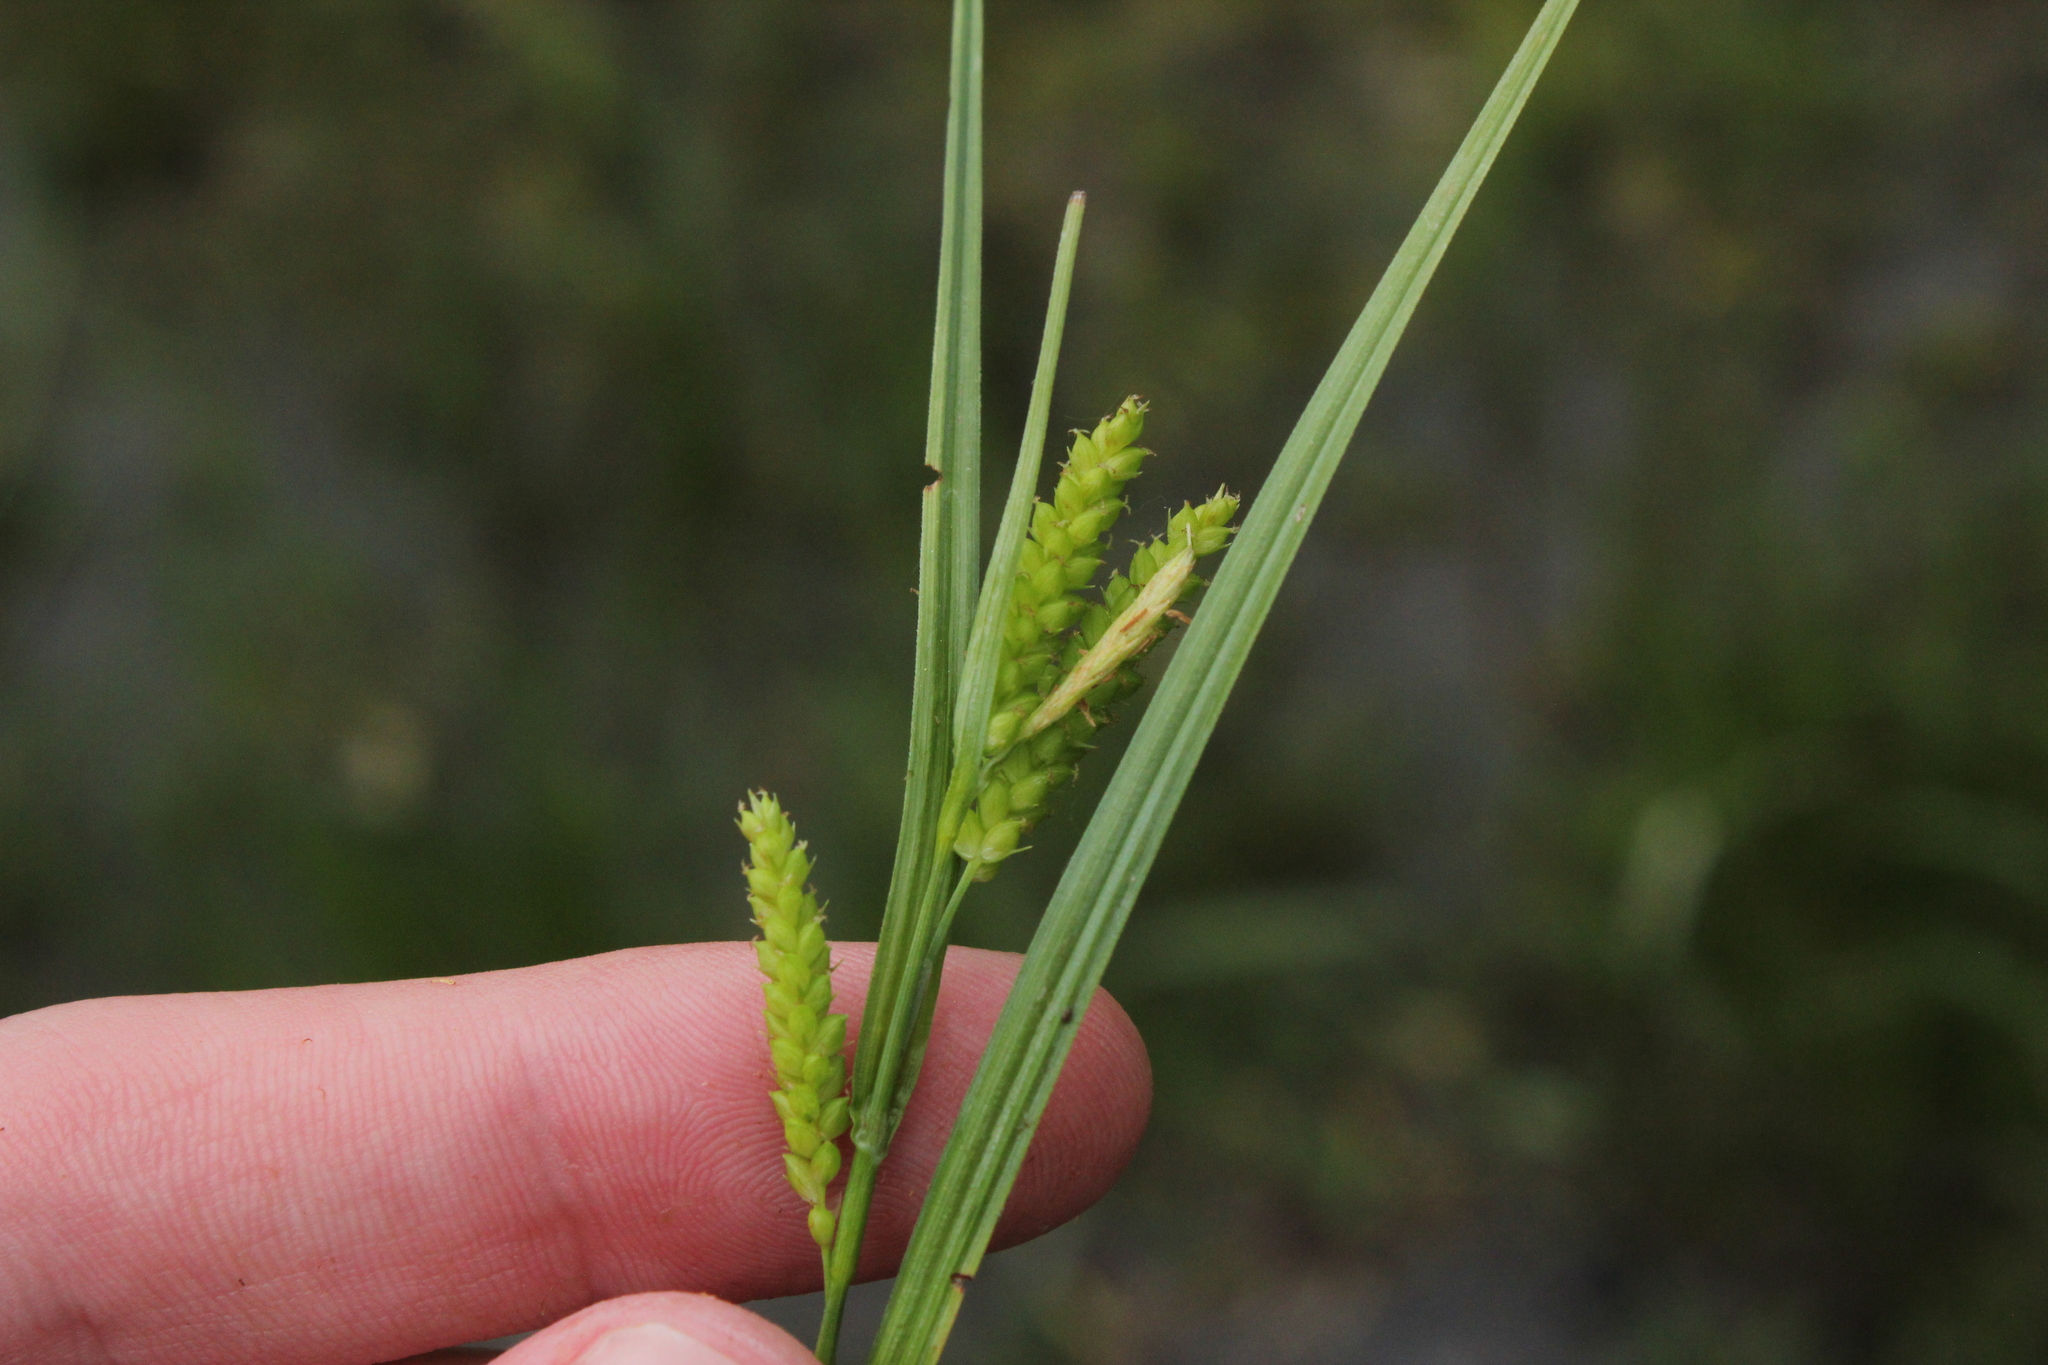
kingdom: Plantae
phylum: Tracheophyta
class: Liliopsida
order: Poales
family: Cyperaceae
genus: Carex
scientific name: Carex granularis
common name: Granular sedge
